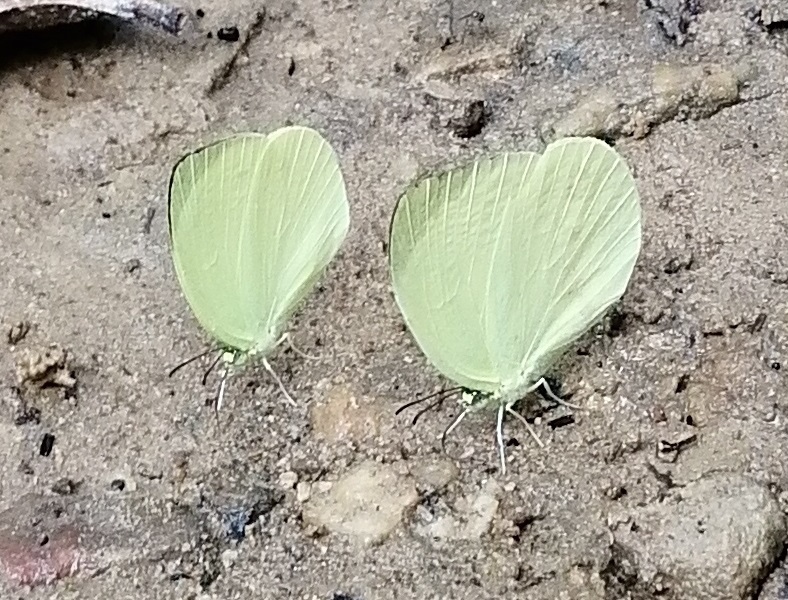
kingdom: Animalia
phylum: Arthropoda
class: Insecta
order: Lepidoptera
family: Pieridae
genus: Gandaca
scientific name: Gandaca harina
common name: Tree yellow
